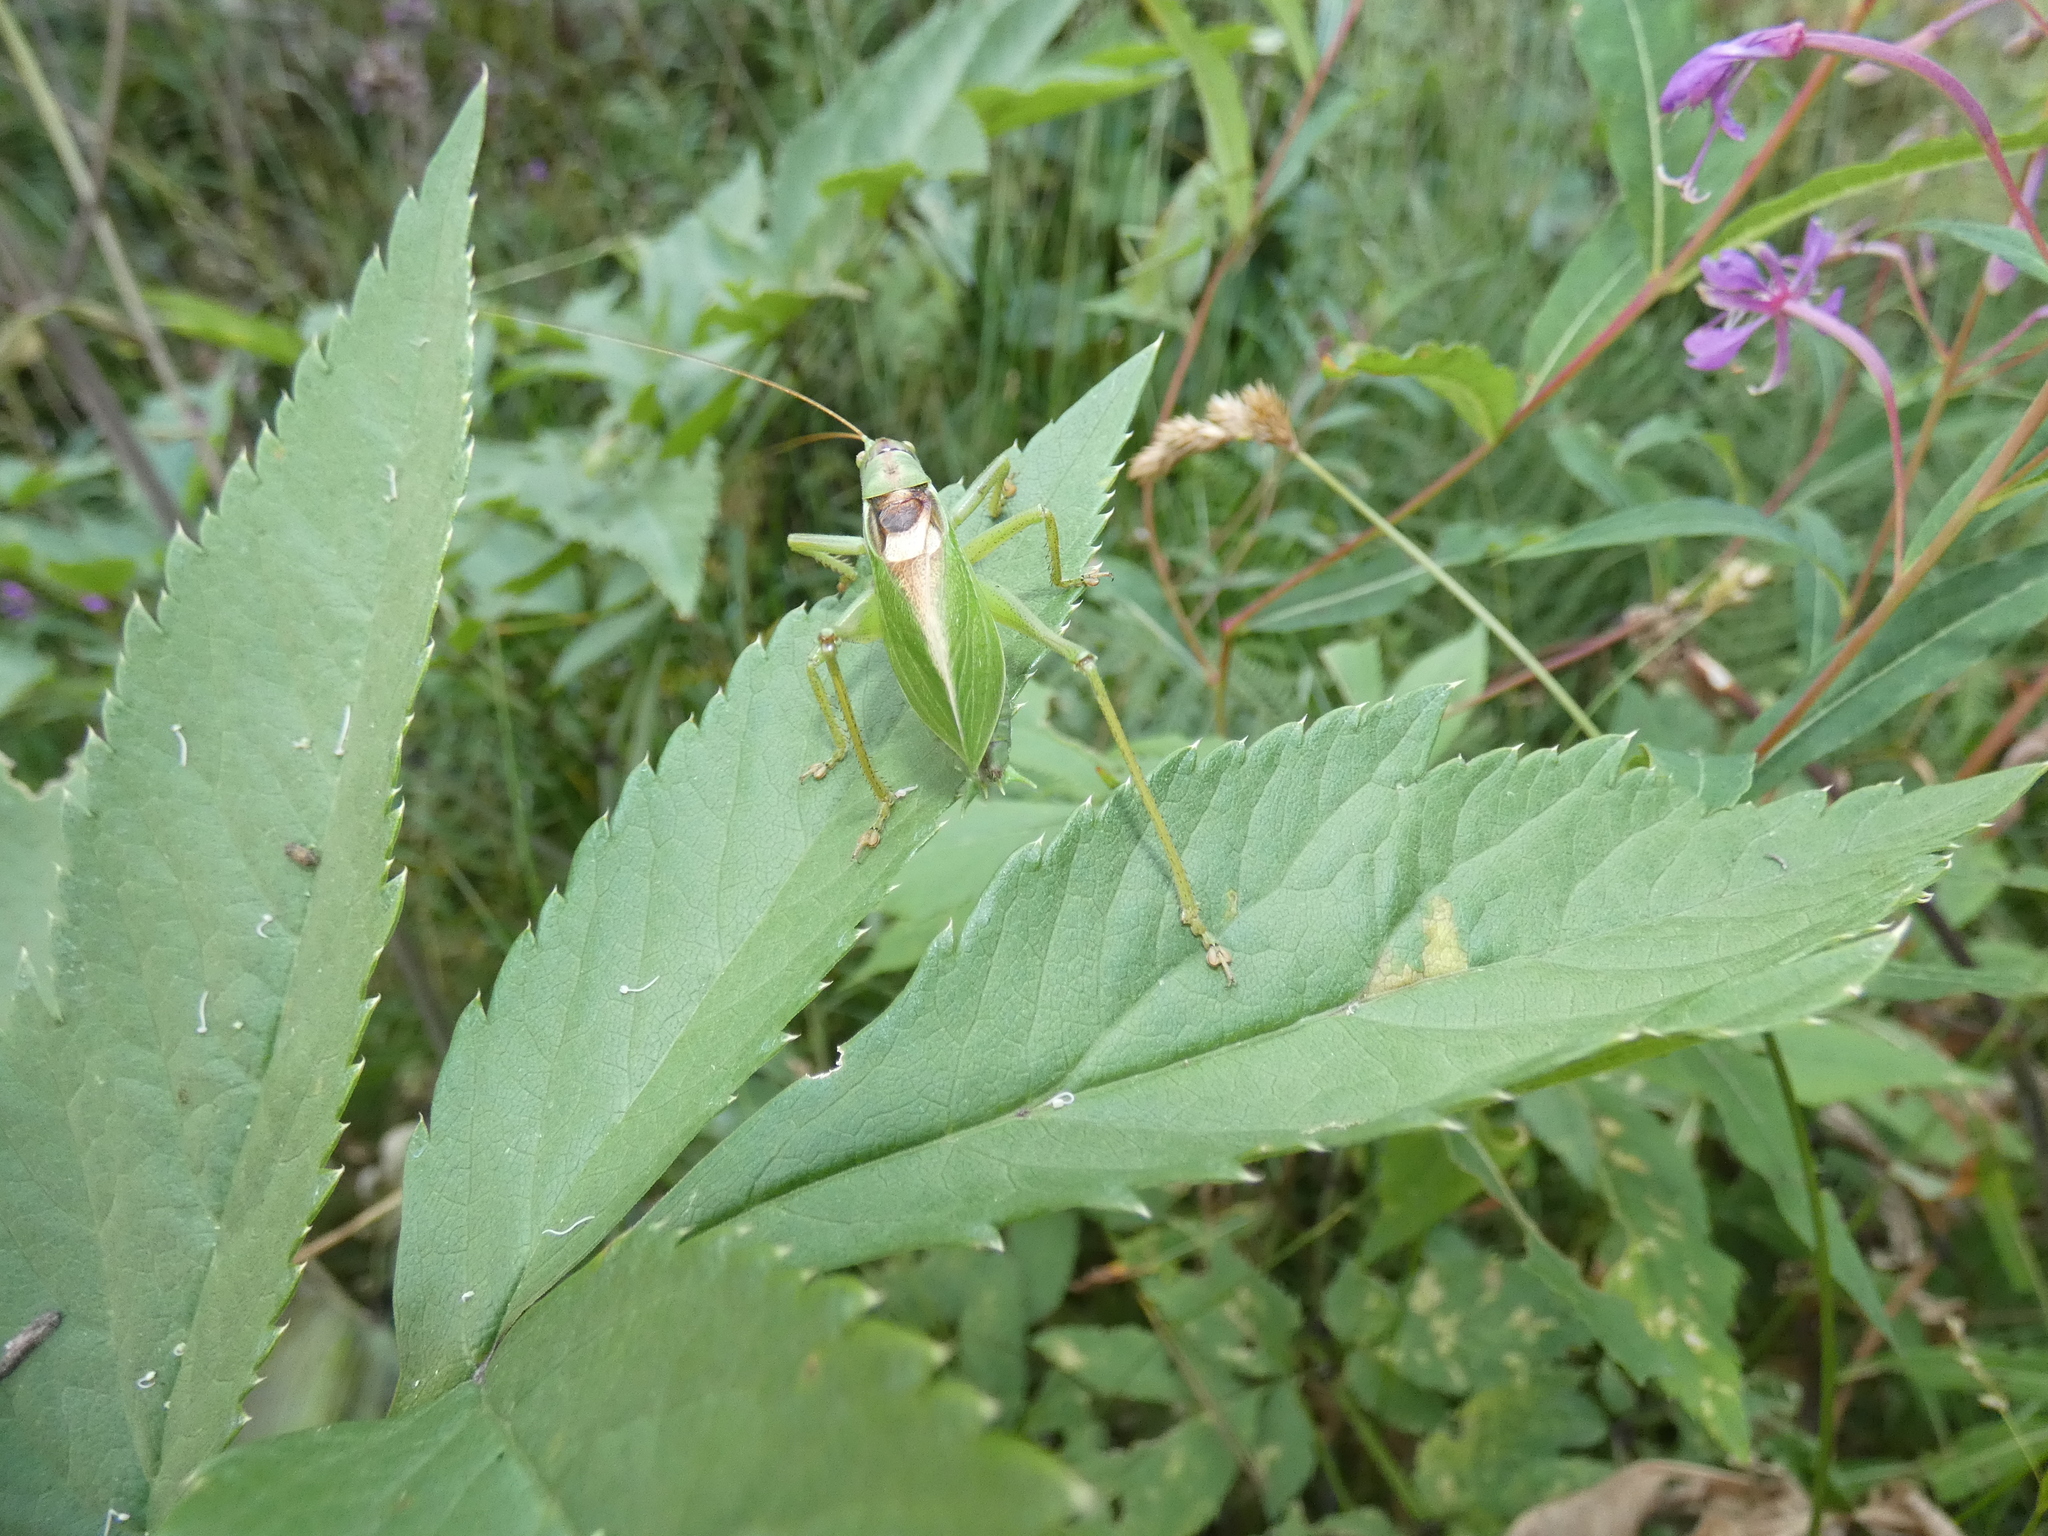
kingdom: Animalia
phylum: Arthropoda
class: Insecta
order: Orthoptera
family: Tettigoniidae
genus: Tettigonia
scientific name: Tettigonia cantans
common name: Upland green bush-cricket
